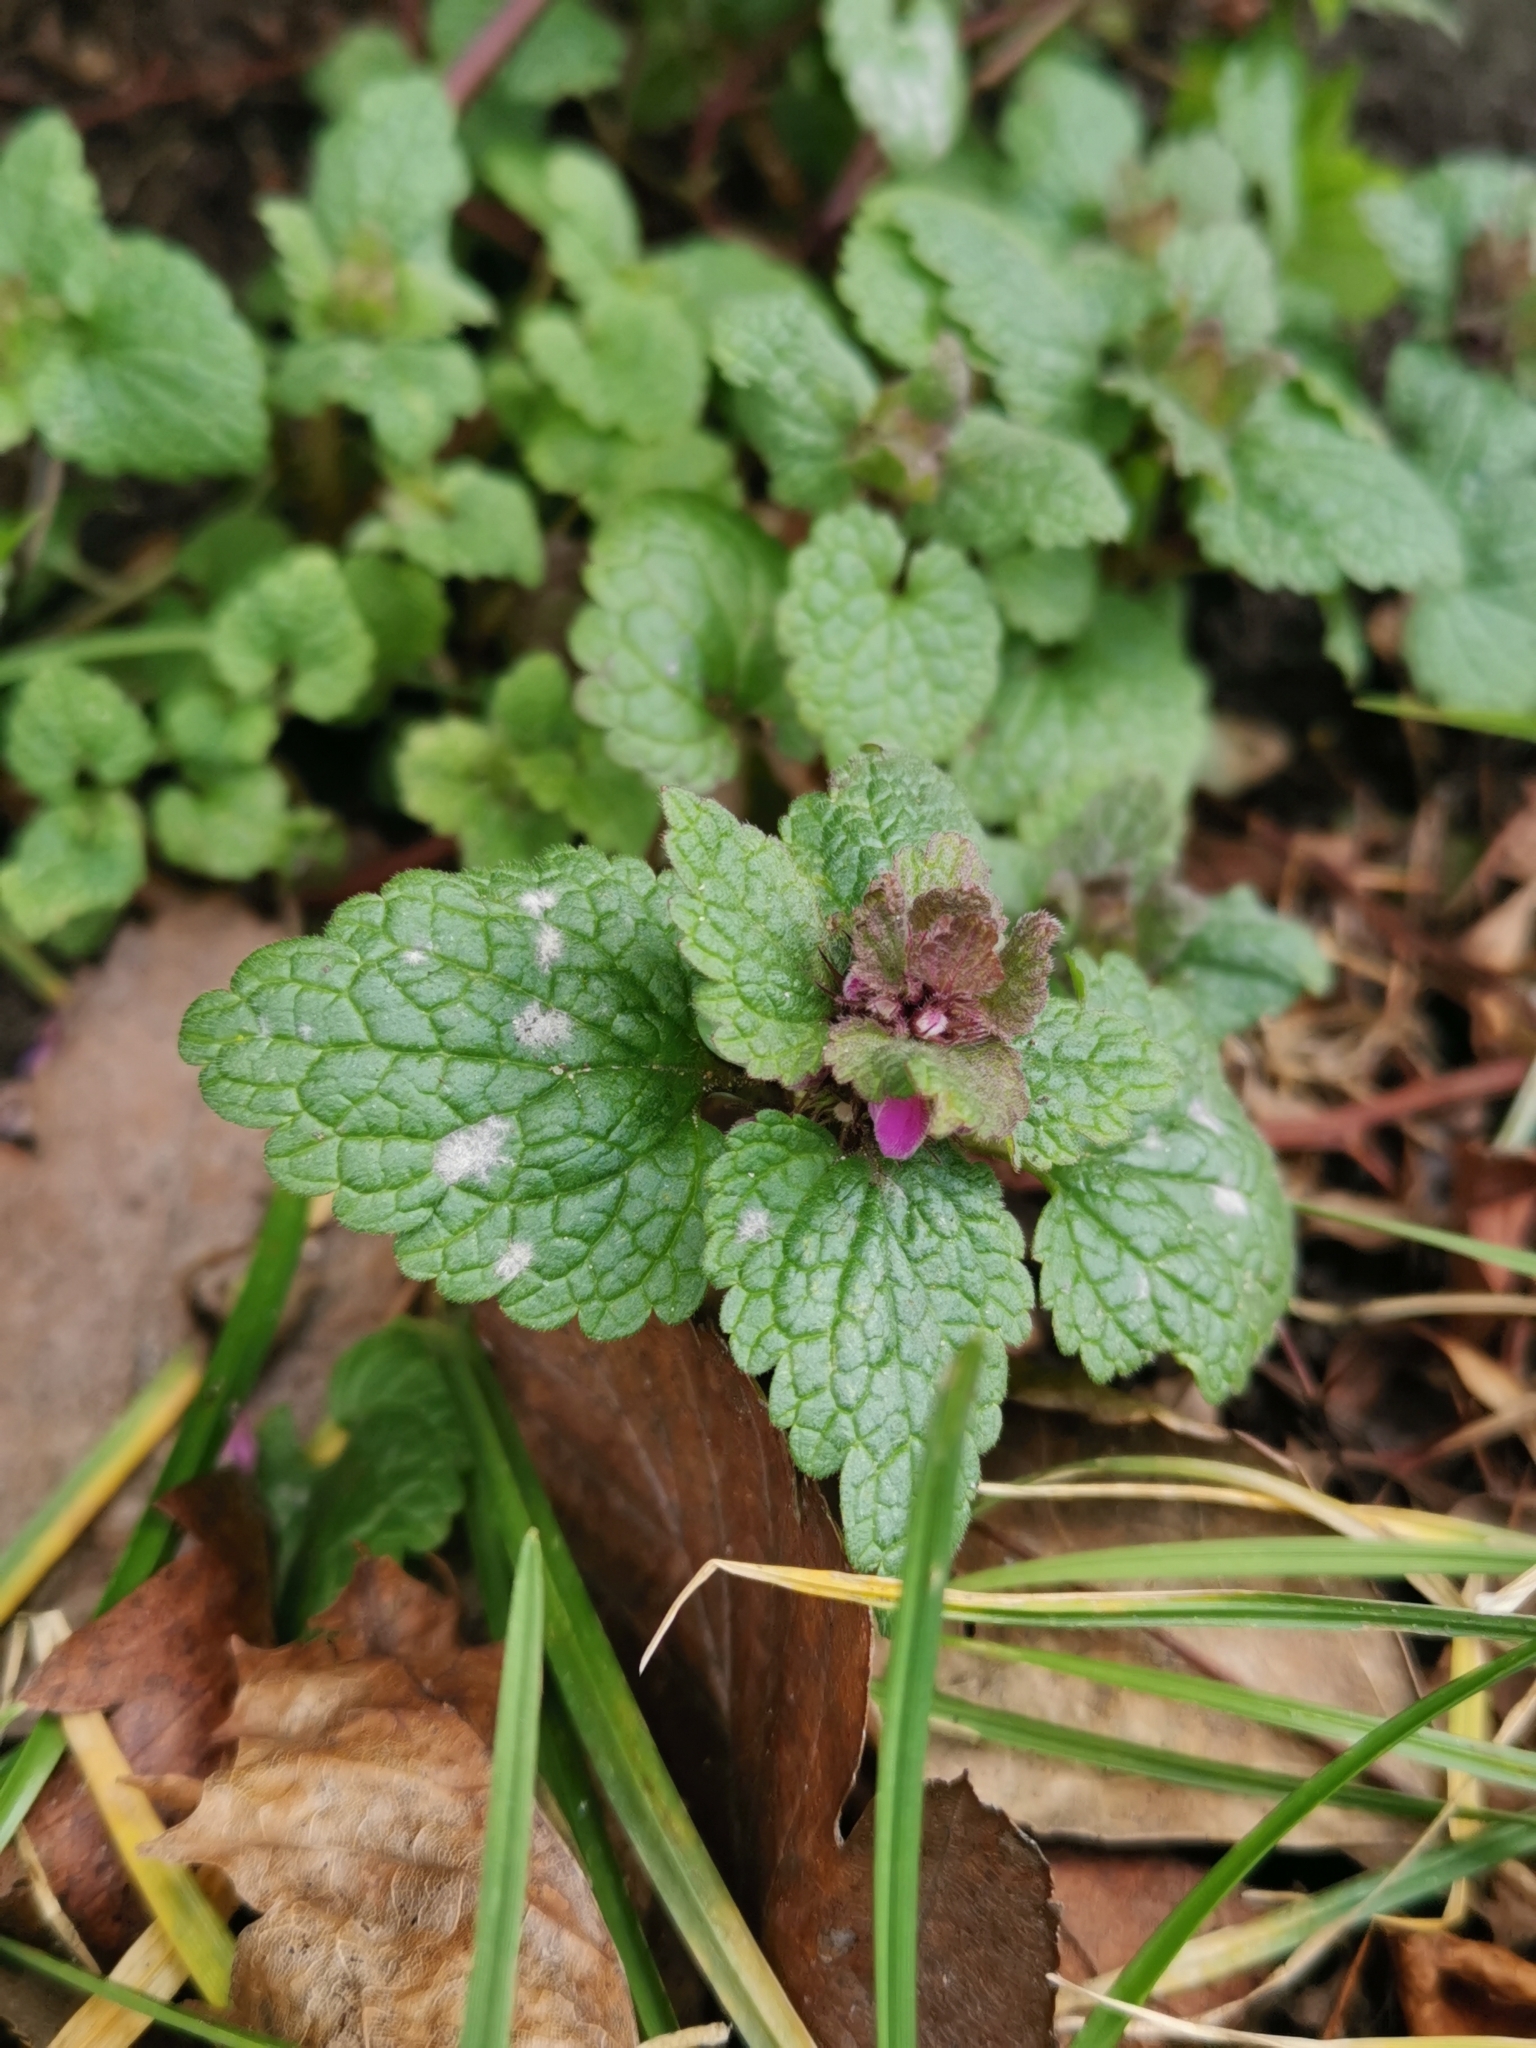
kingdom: Plantae
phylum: Tracheophyta
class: Magnoliopsida
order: Lamiales
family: Lamiaceae
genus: Lamium
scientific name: Lamium purpureum
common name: Red dead-nettle
